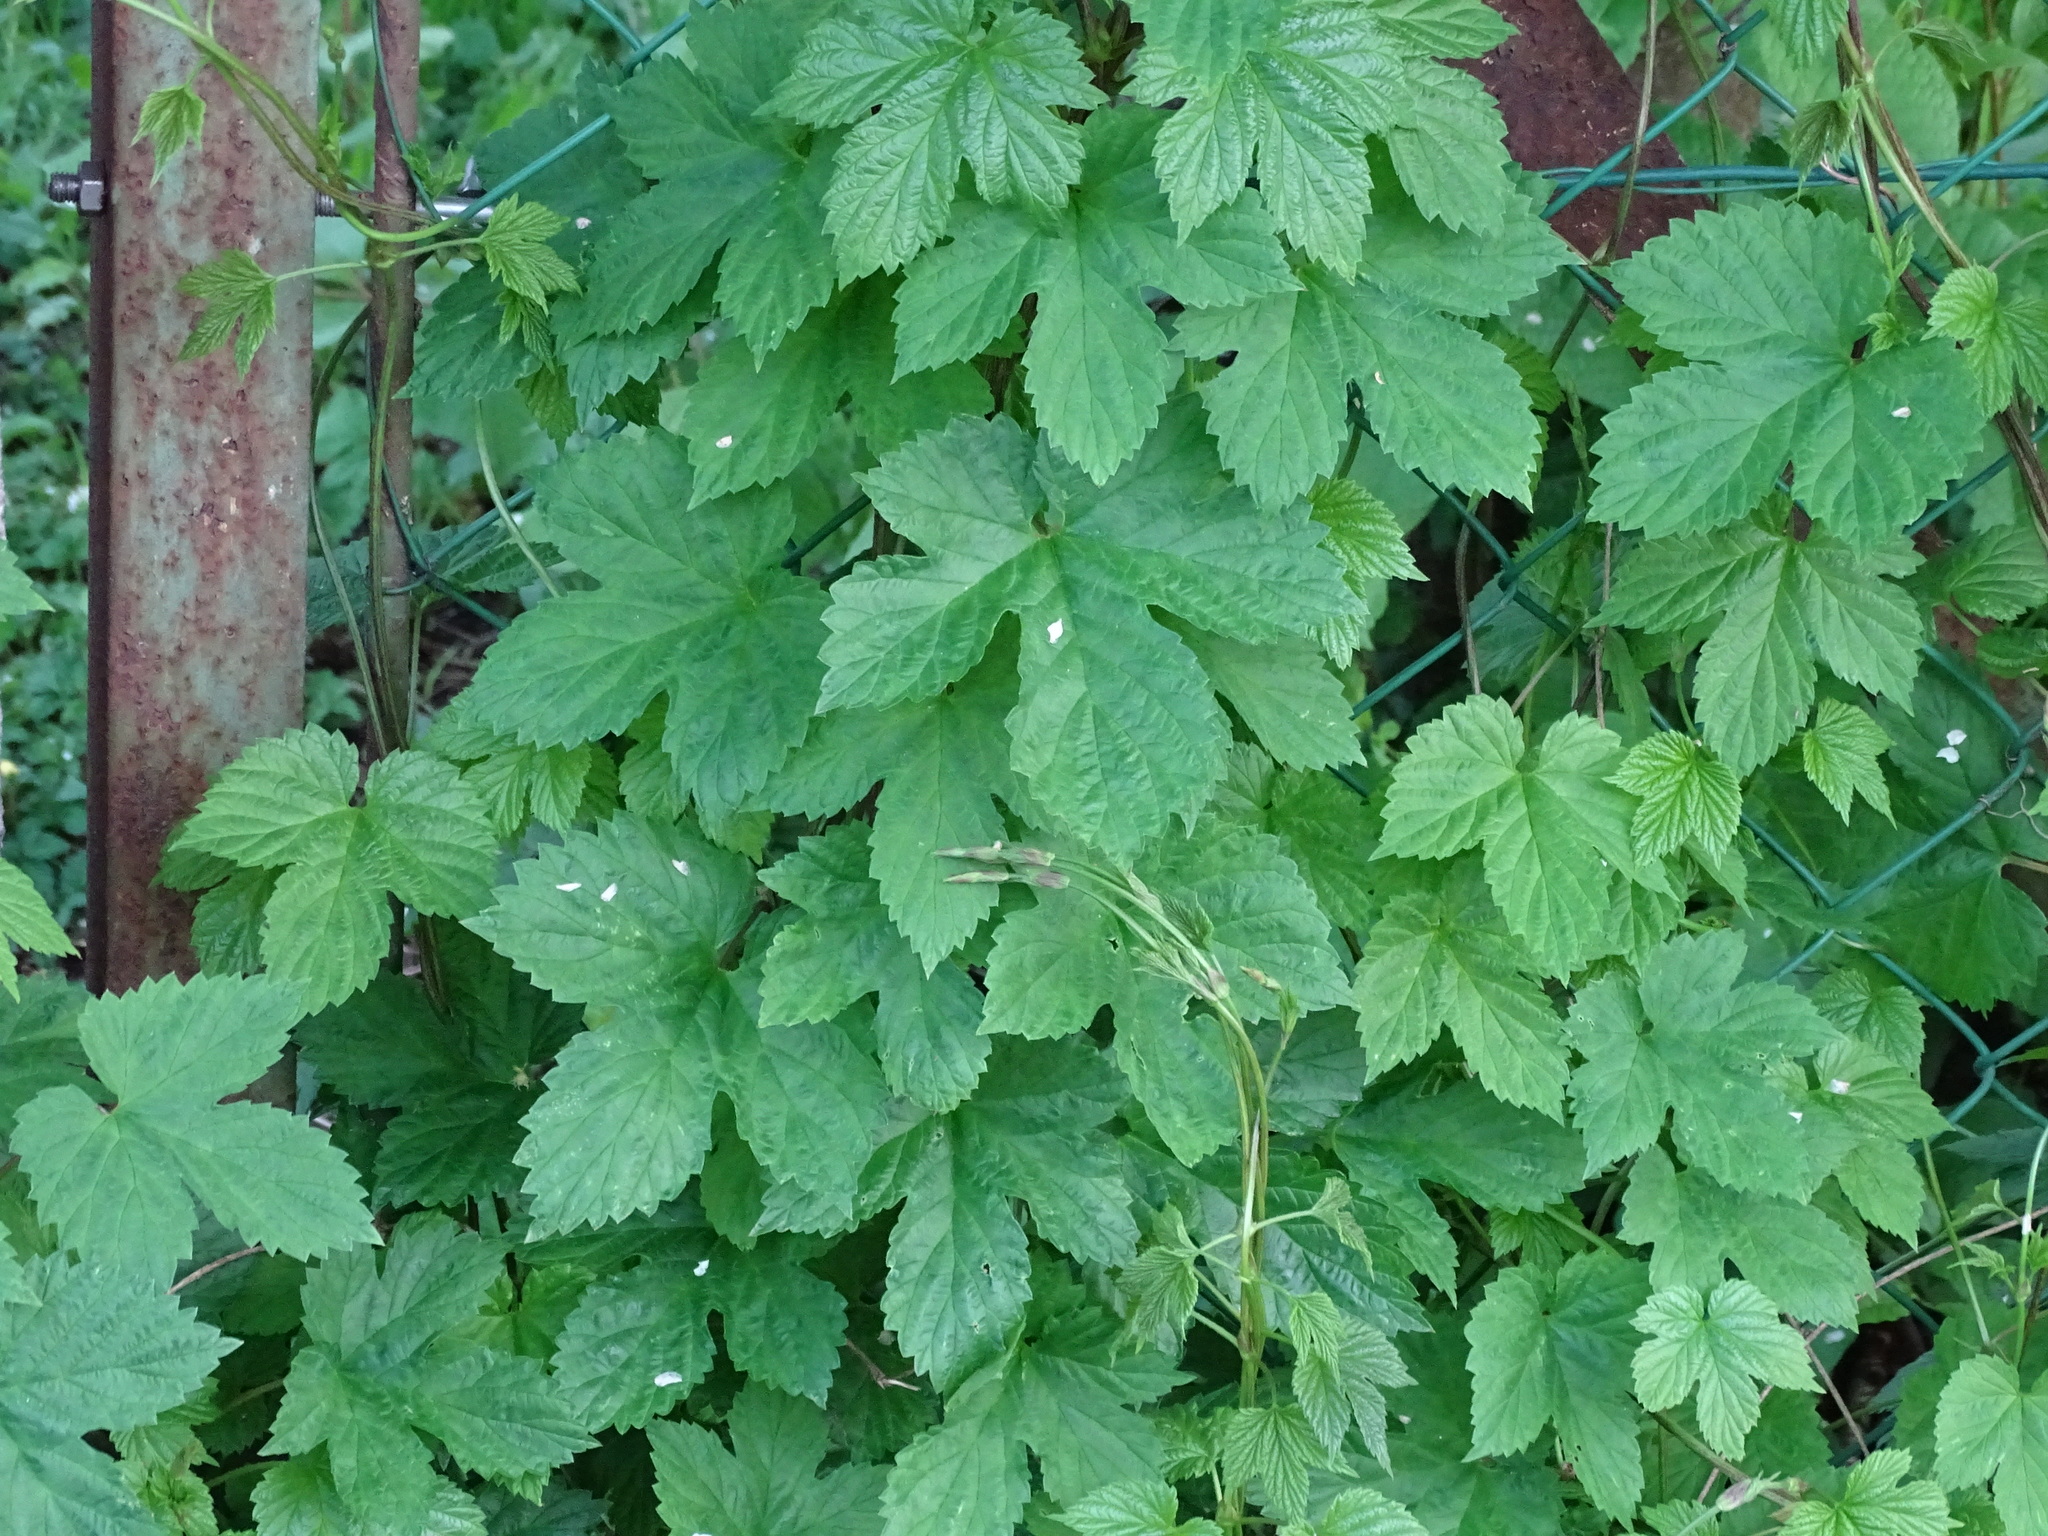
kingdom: Plantae
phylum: Tracheophyta
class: Magnoliopsida
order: Rosales
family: Cannabaceae
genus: Humulus
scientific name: Humulus lupulus
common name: Hop
